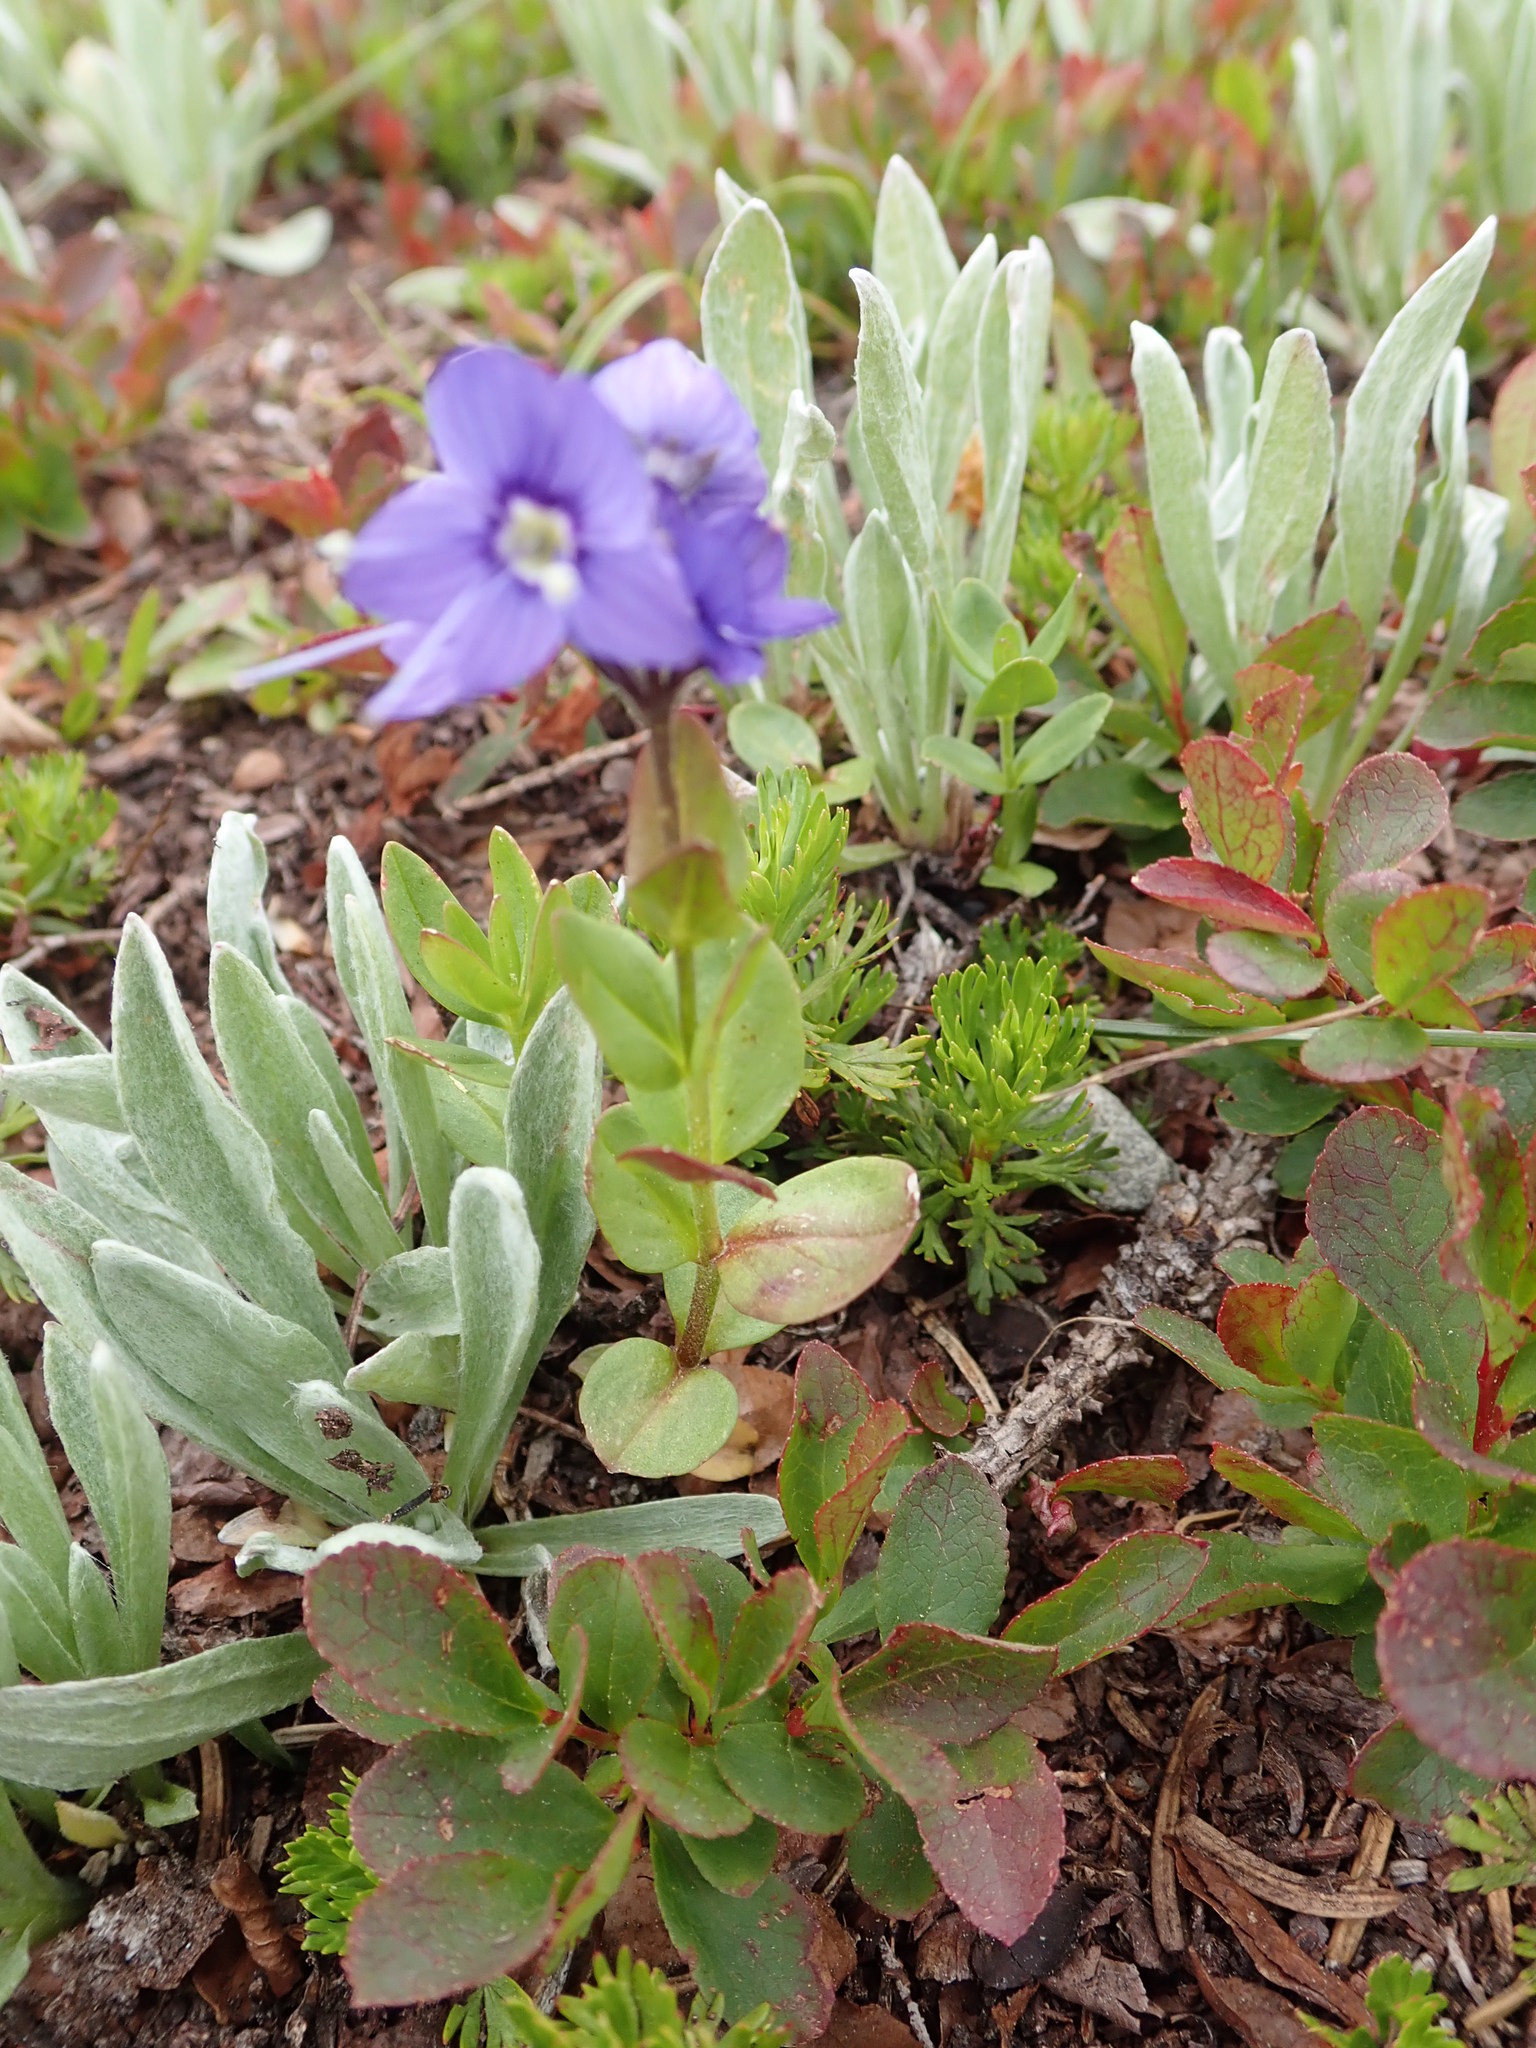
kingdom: Plantae
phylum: Tracheophyta
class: Magnoliopsida
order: Lamiales
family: Plantaginaceae
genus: Veronica
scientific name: Veronica cusickii
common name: Cusick's speedwell
